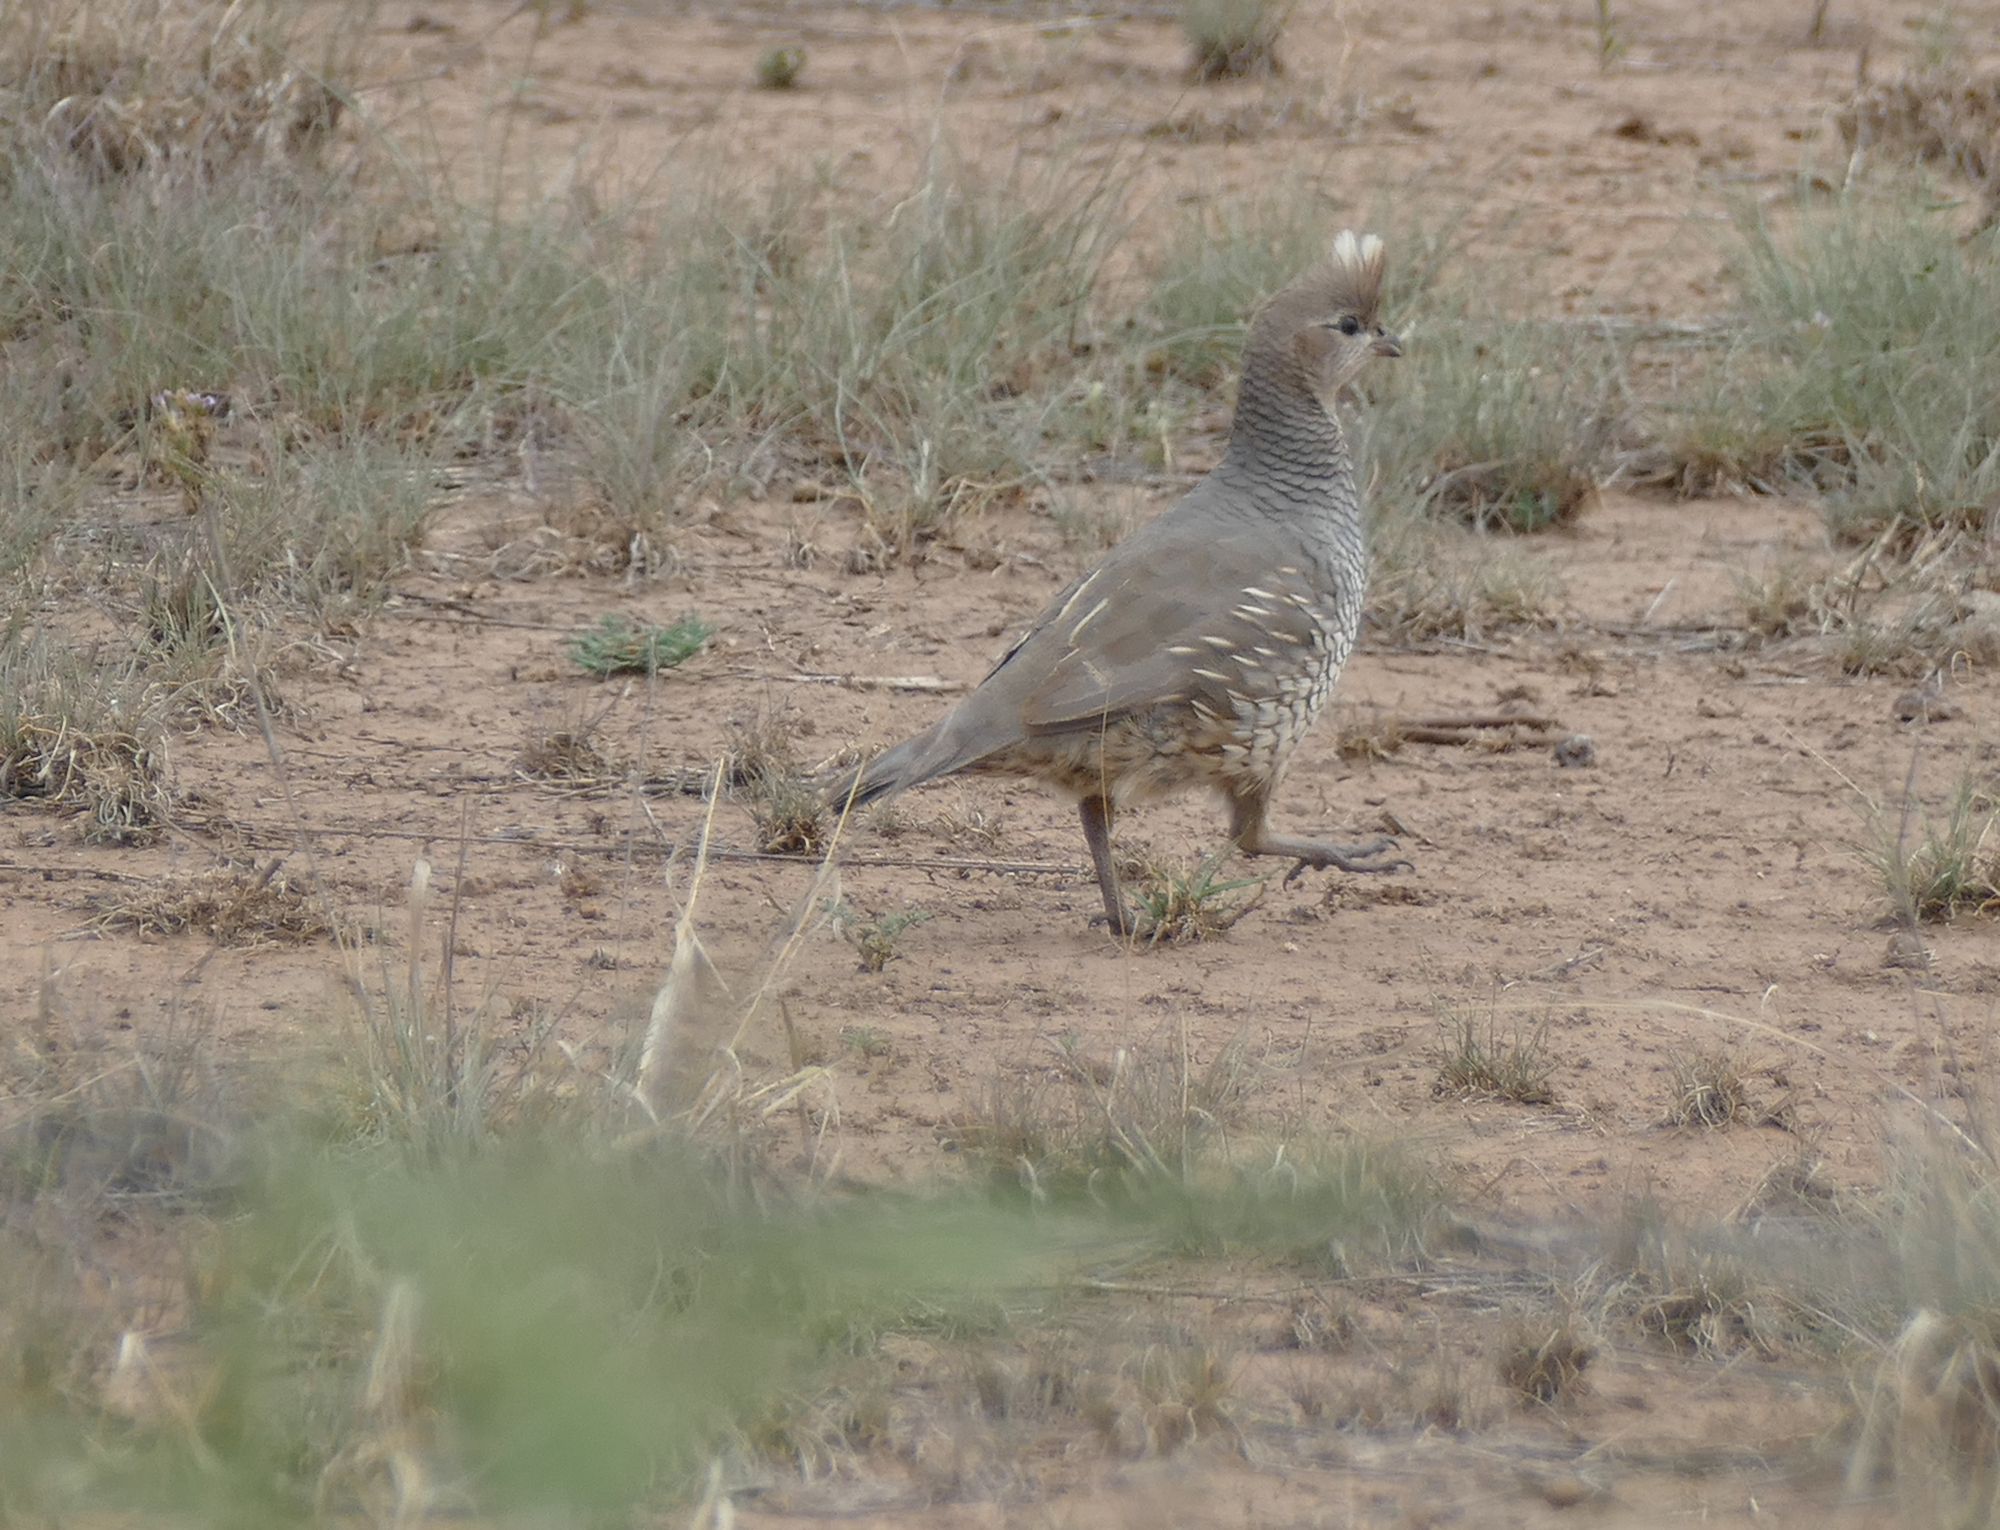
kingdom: Animalia
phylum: Chordata
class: Aves
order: Galliformes
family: Odontophoridae
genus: Callipepla
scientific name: Callipepla squamata
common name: Scaled quail
